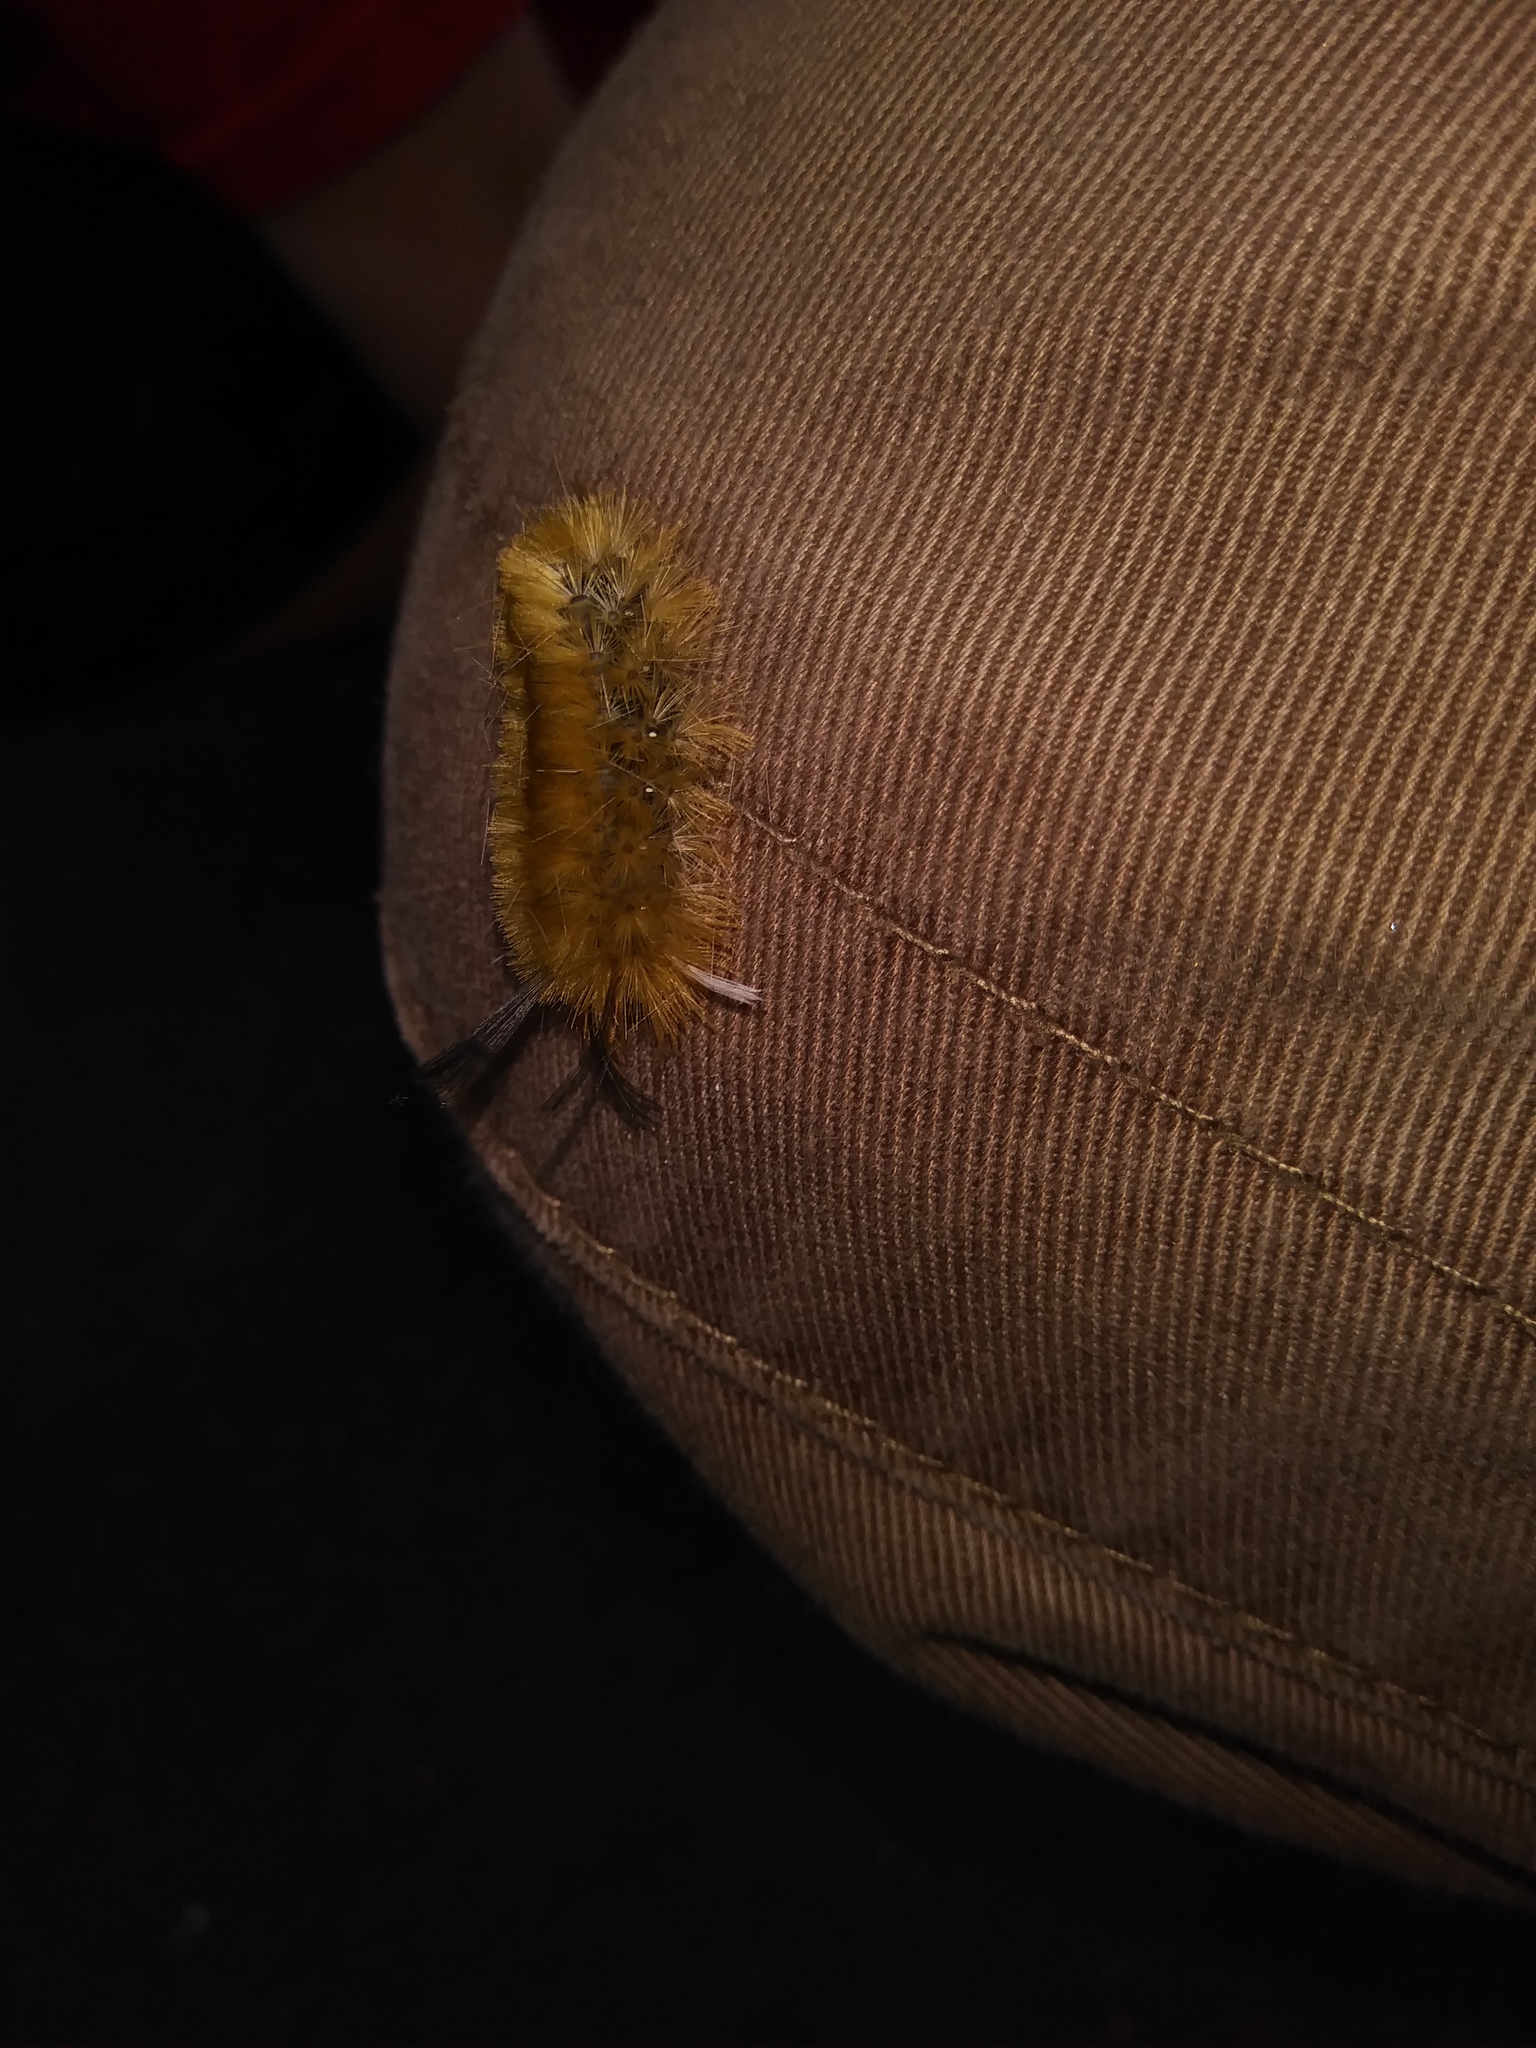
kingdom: Animalia
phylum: Arthropoda
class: Insecta
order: Lepidoptera
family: Erebidae
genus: Halysidota
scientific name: Halysidota tessellaris
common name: Banded tussock moth
